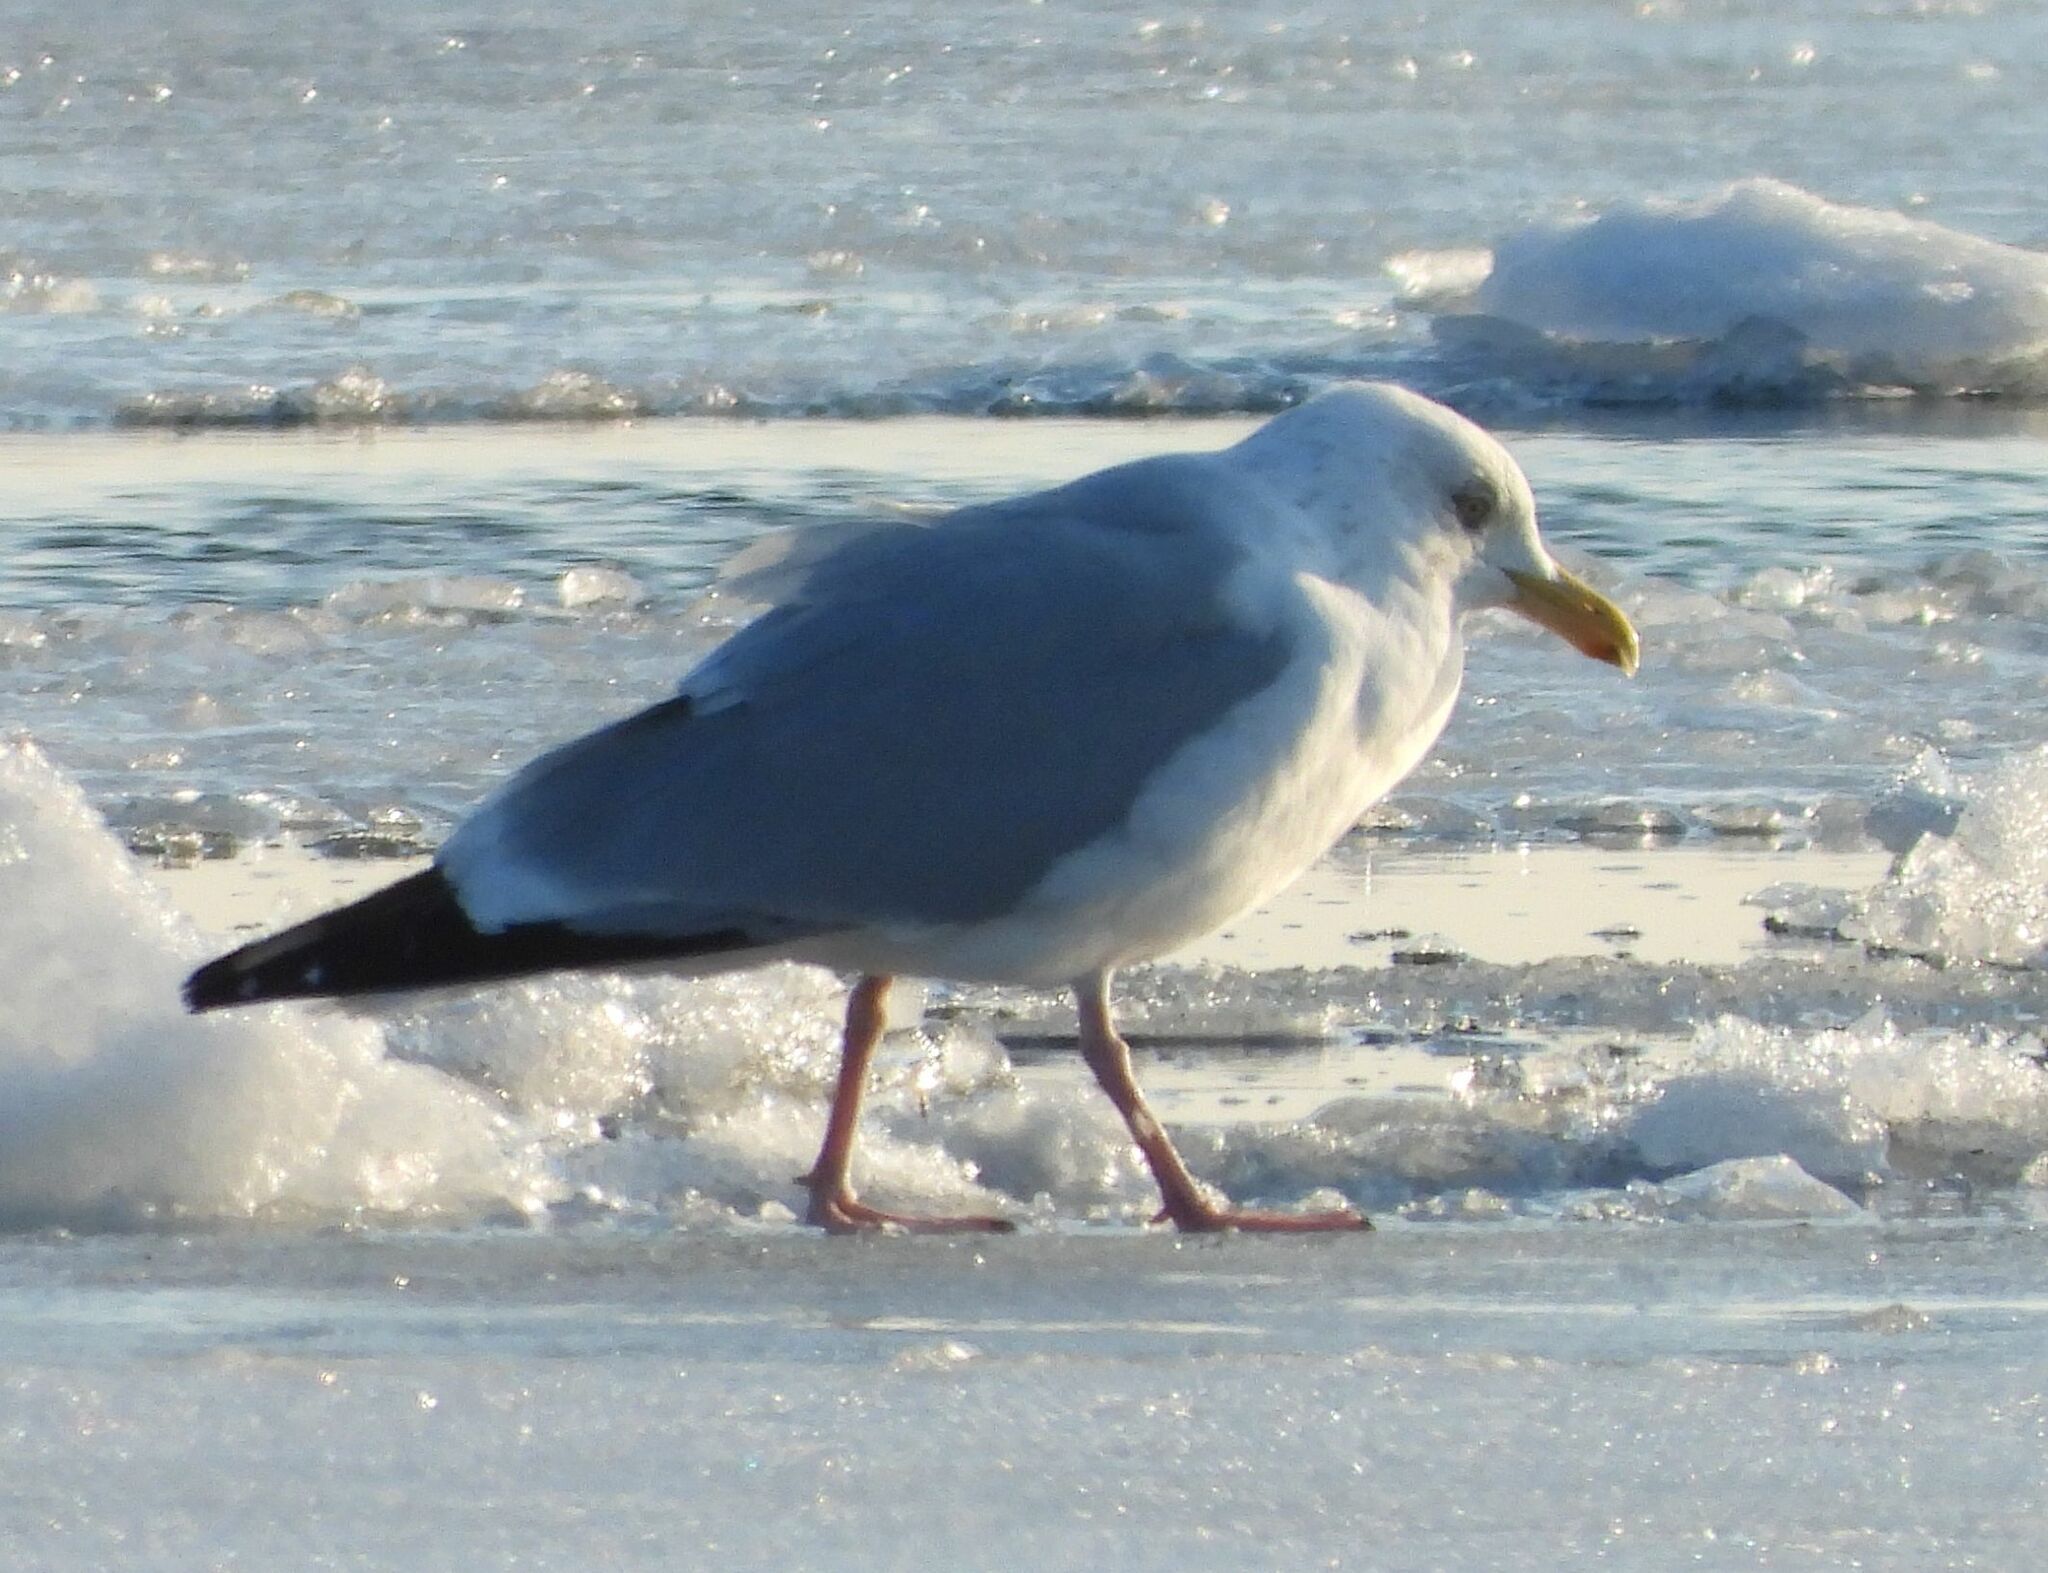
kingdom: Animalia
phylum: Chordata
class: Aves
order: Charadriiformes
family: Laridae
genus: Larus
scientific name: Larus argentatus
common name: Herring gull
